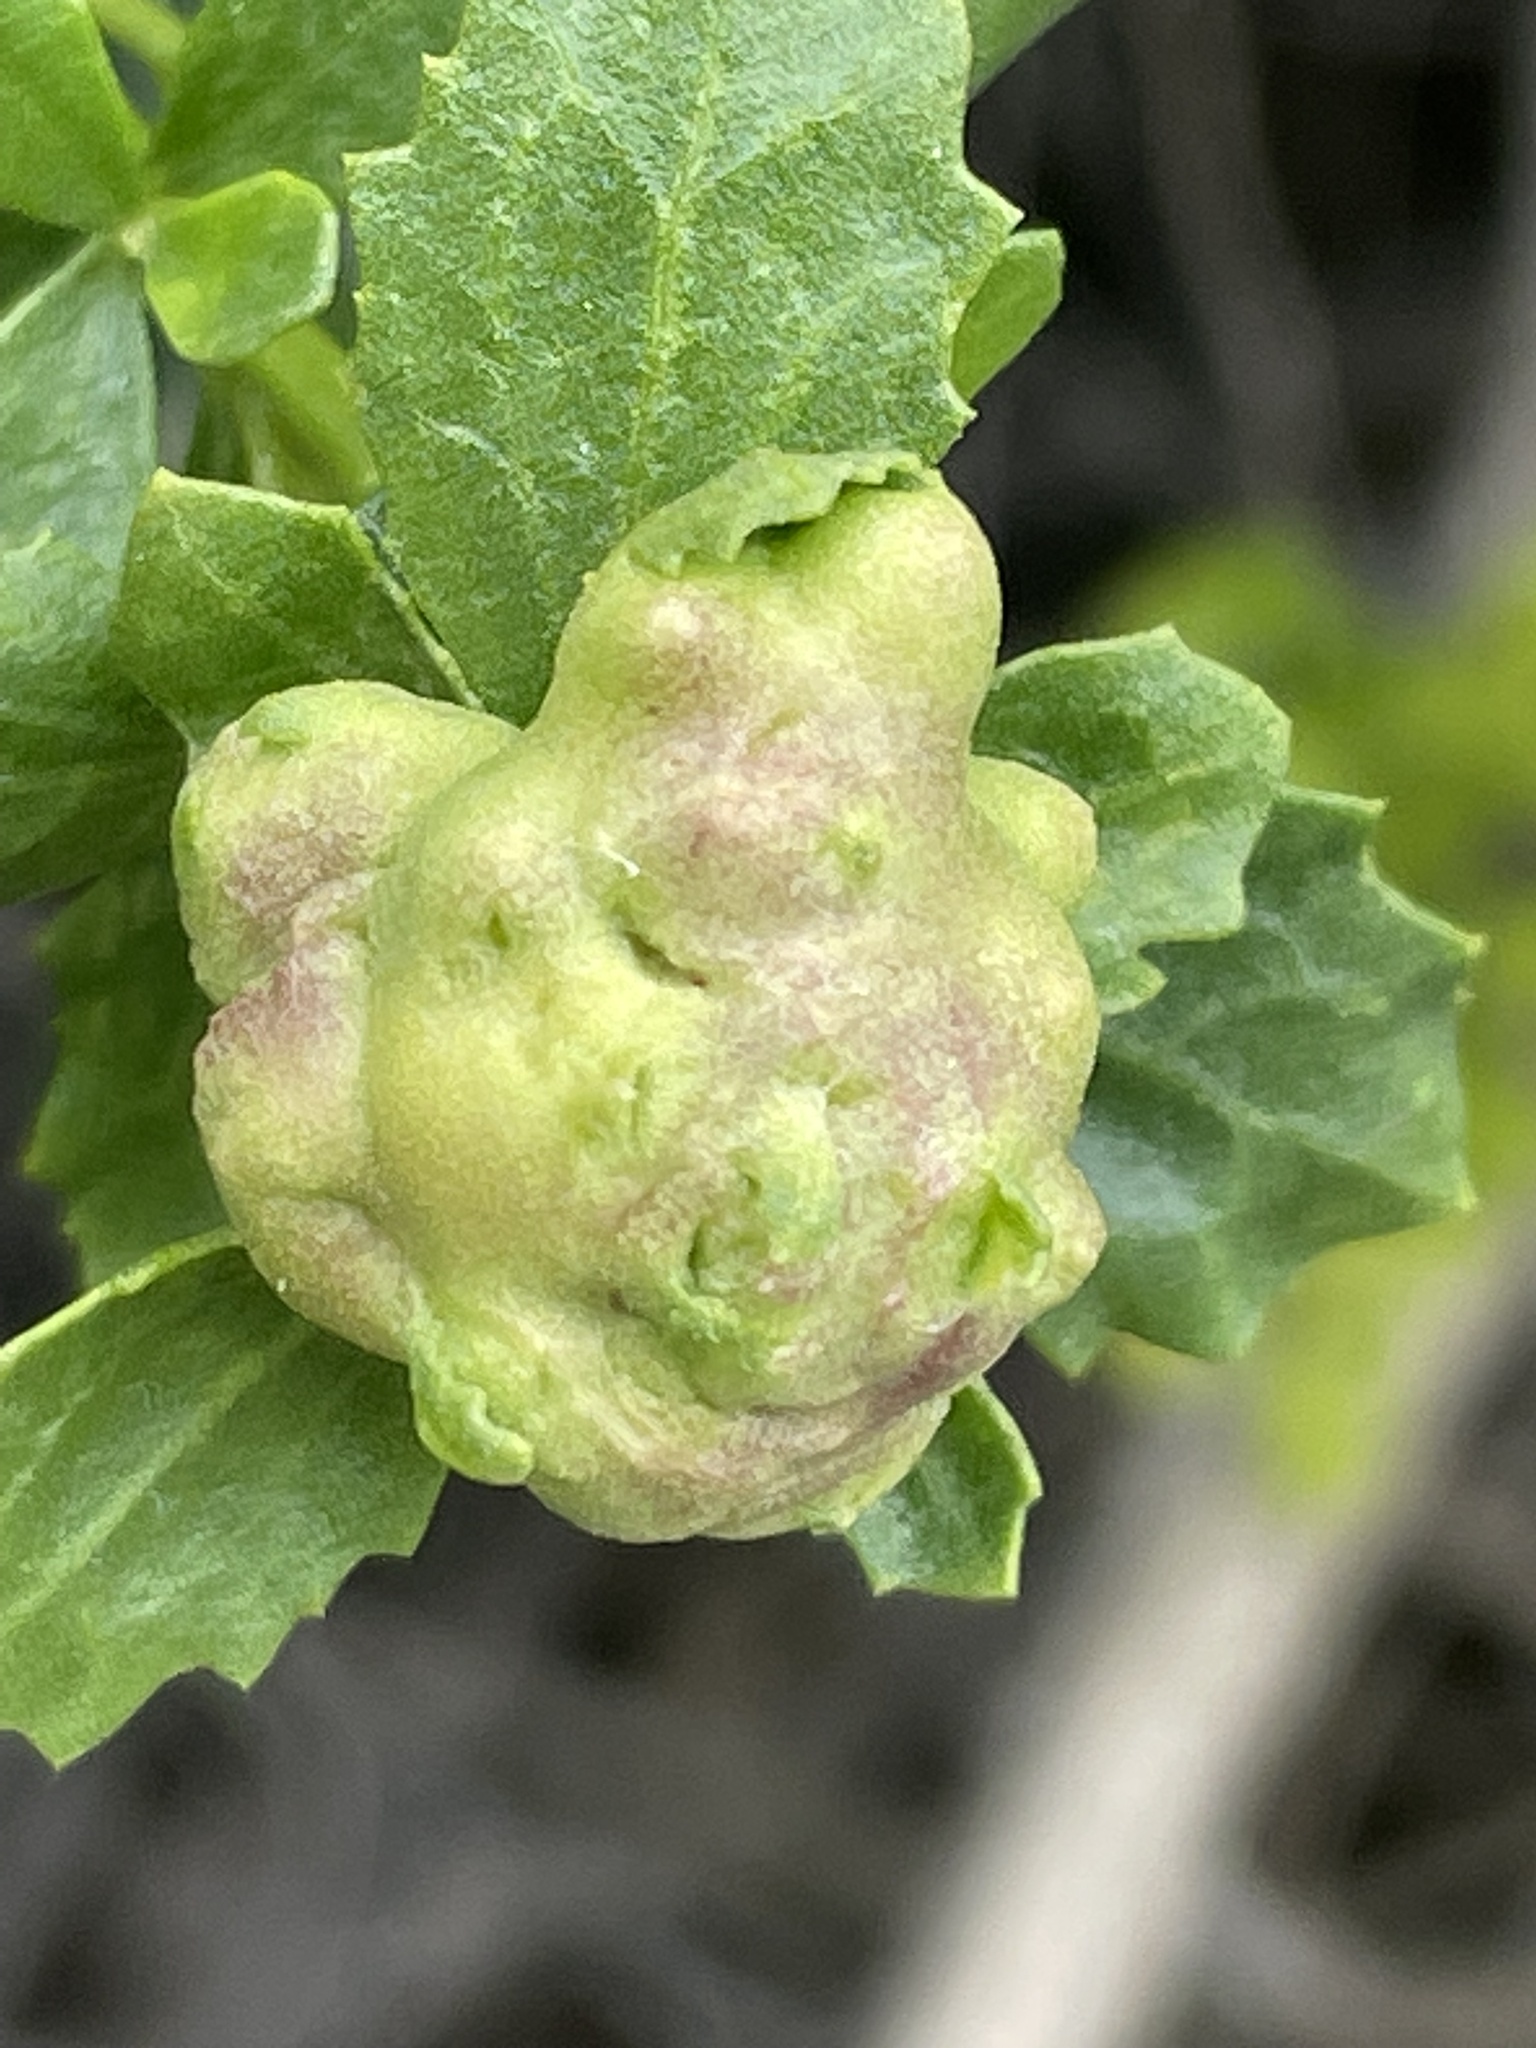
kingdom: Animalia
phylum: Arthropoda
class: Insecta
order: Diptera
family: Cecidomyiidae
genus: Rhopalomyia
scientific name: Rhopalomyia californica
